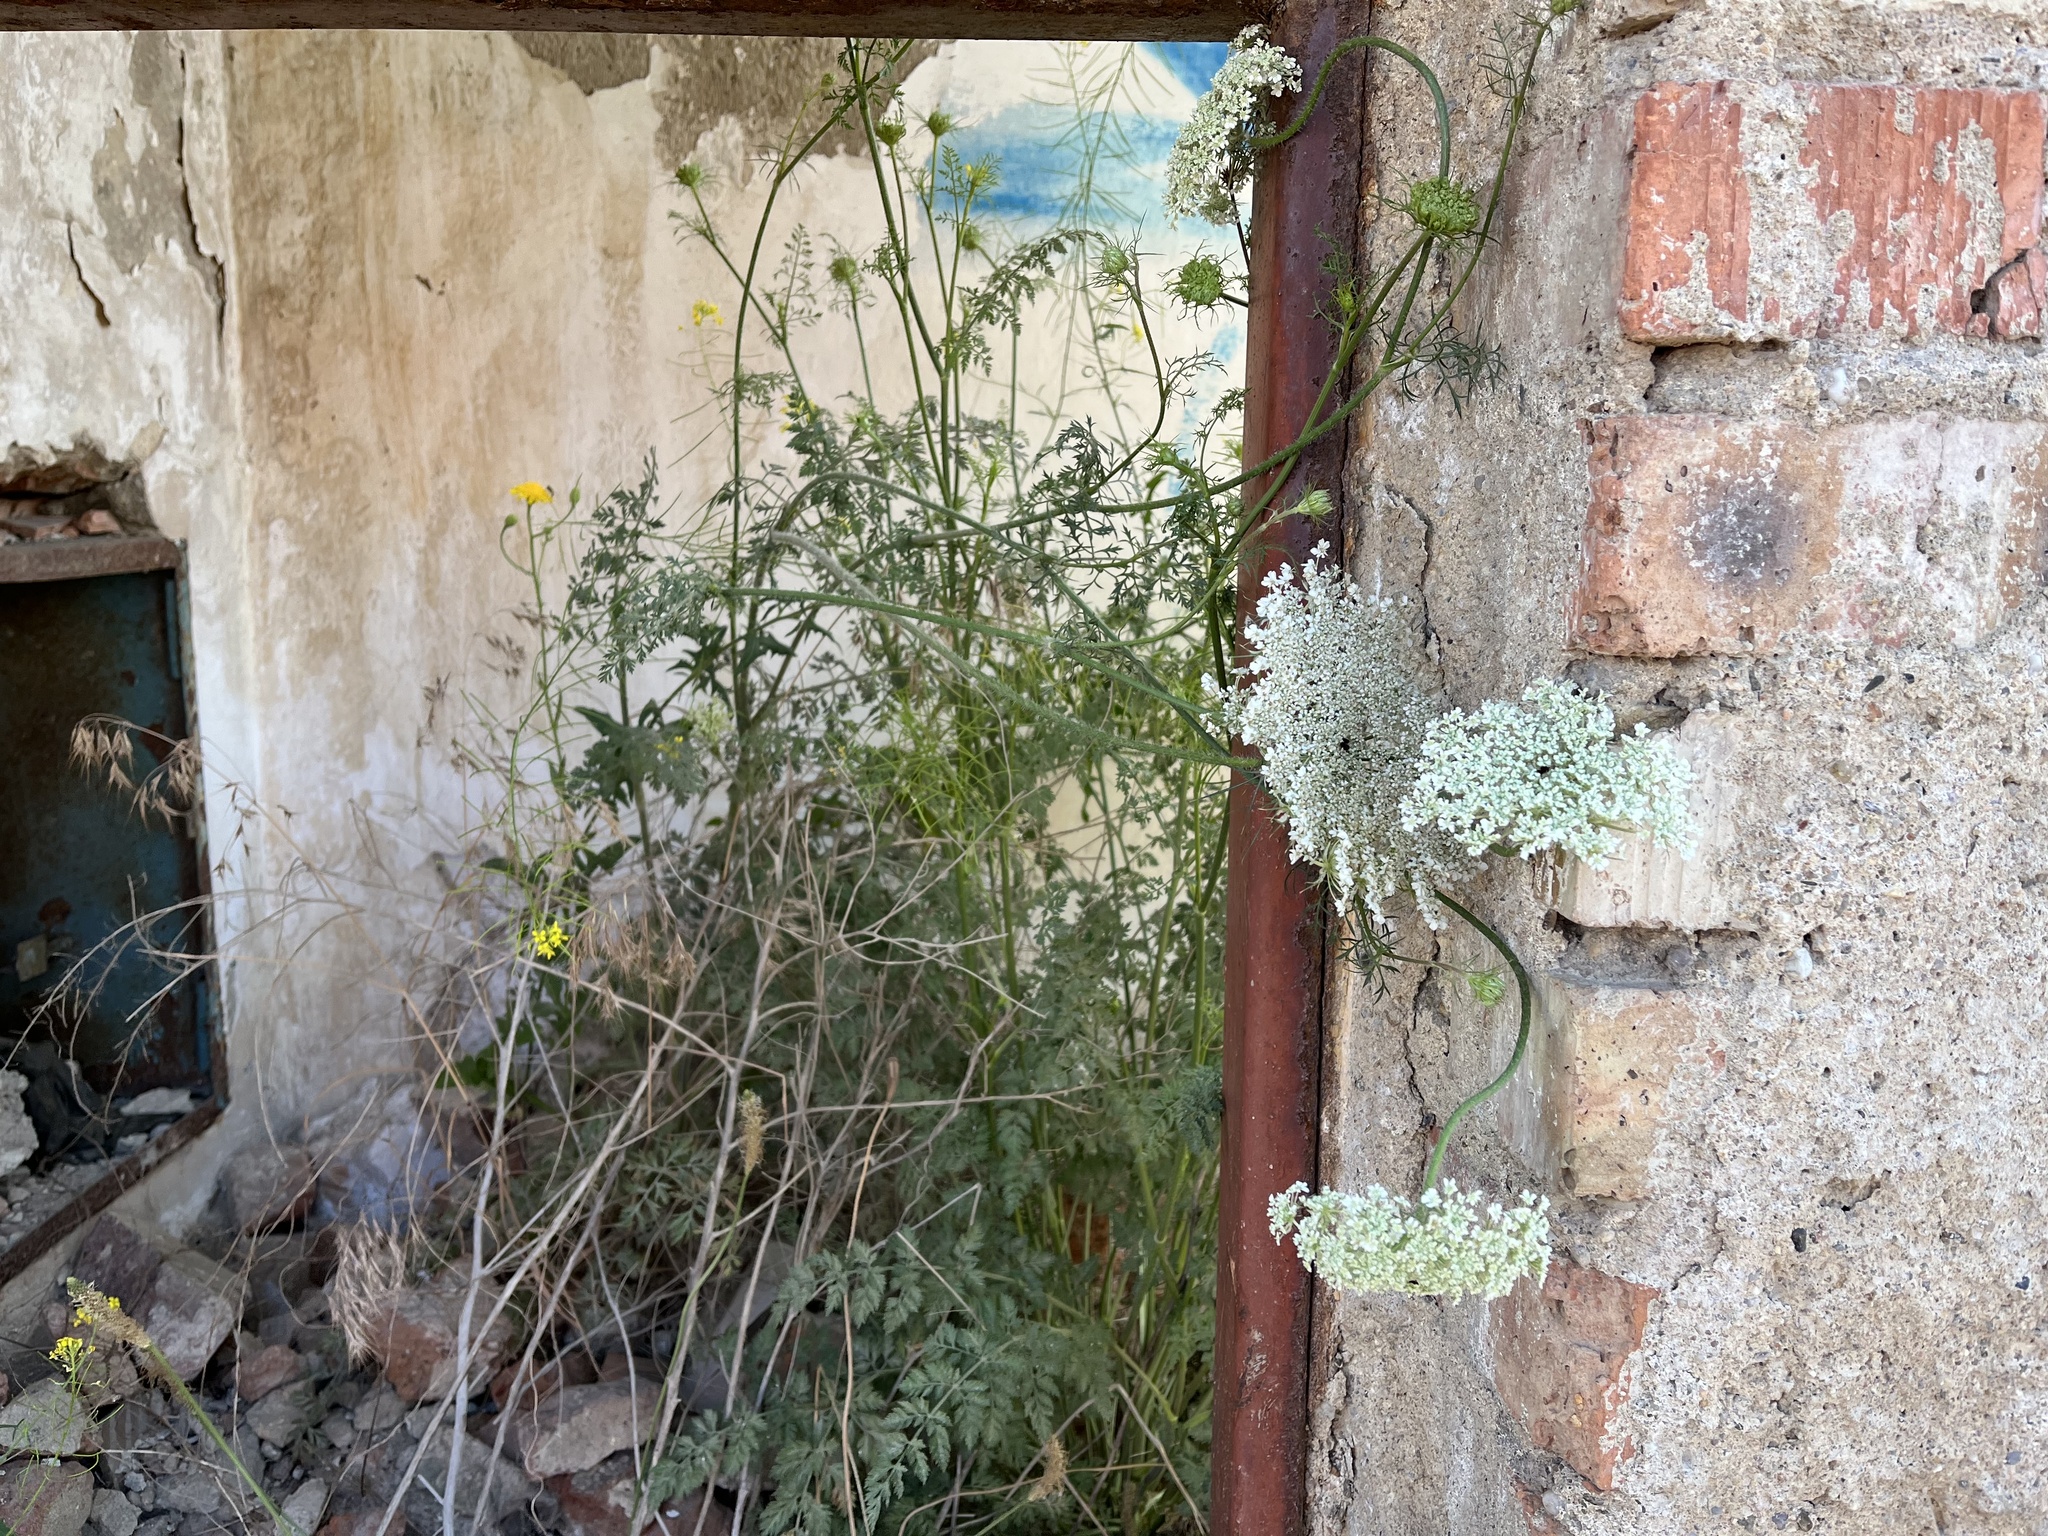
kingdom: Plantae
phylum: Tracheophyta
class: Magnoliopsida
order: Apiales
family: Apiaceae
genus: Daucus
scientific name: Daucus carota
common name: Wild carrot
